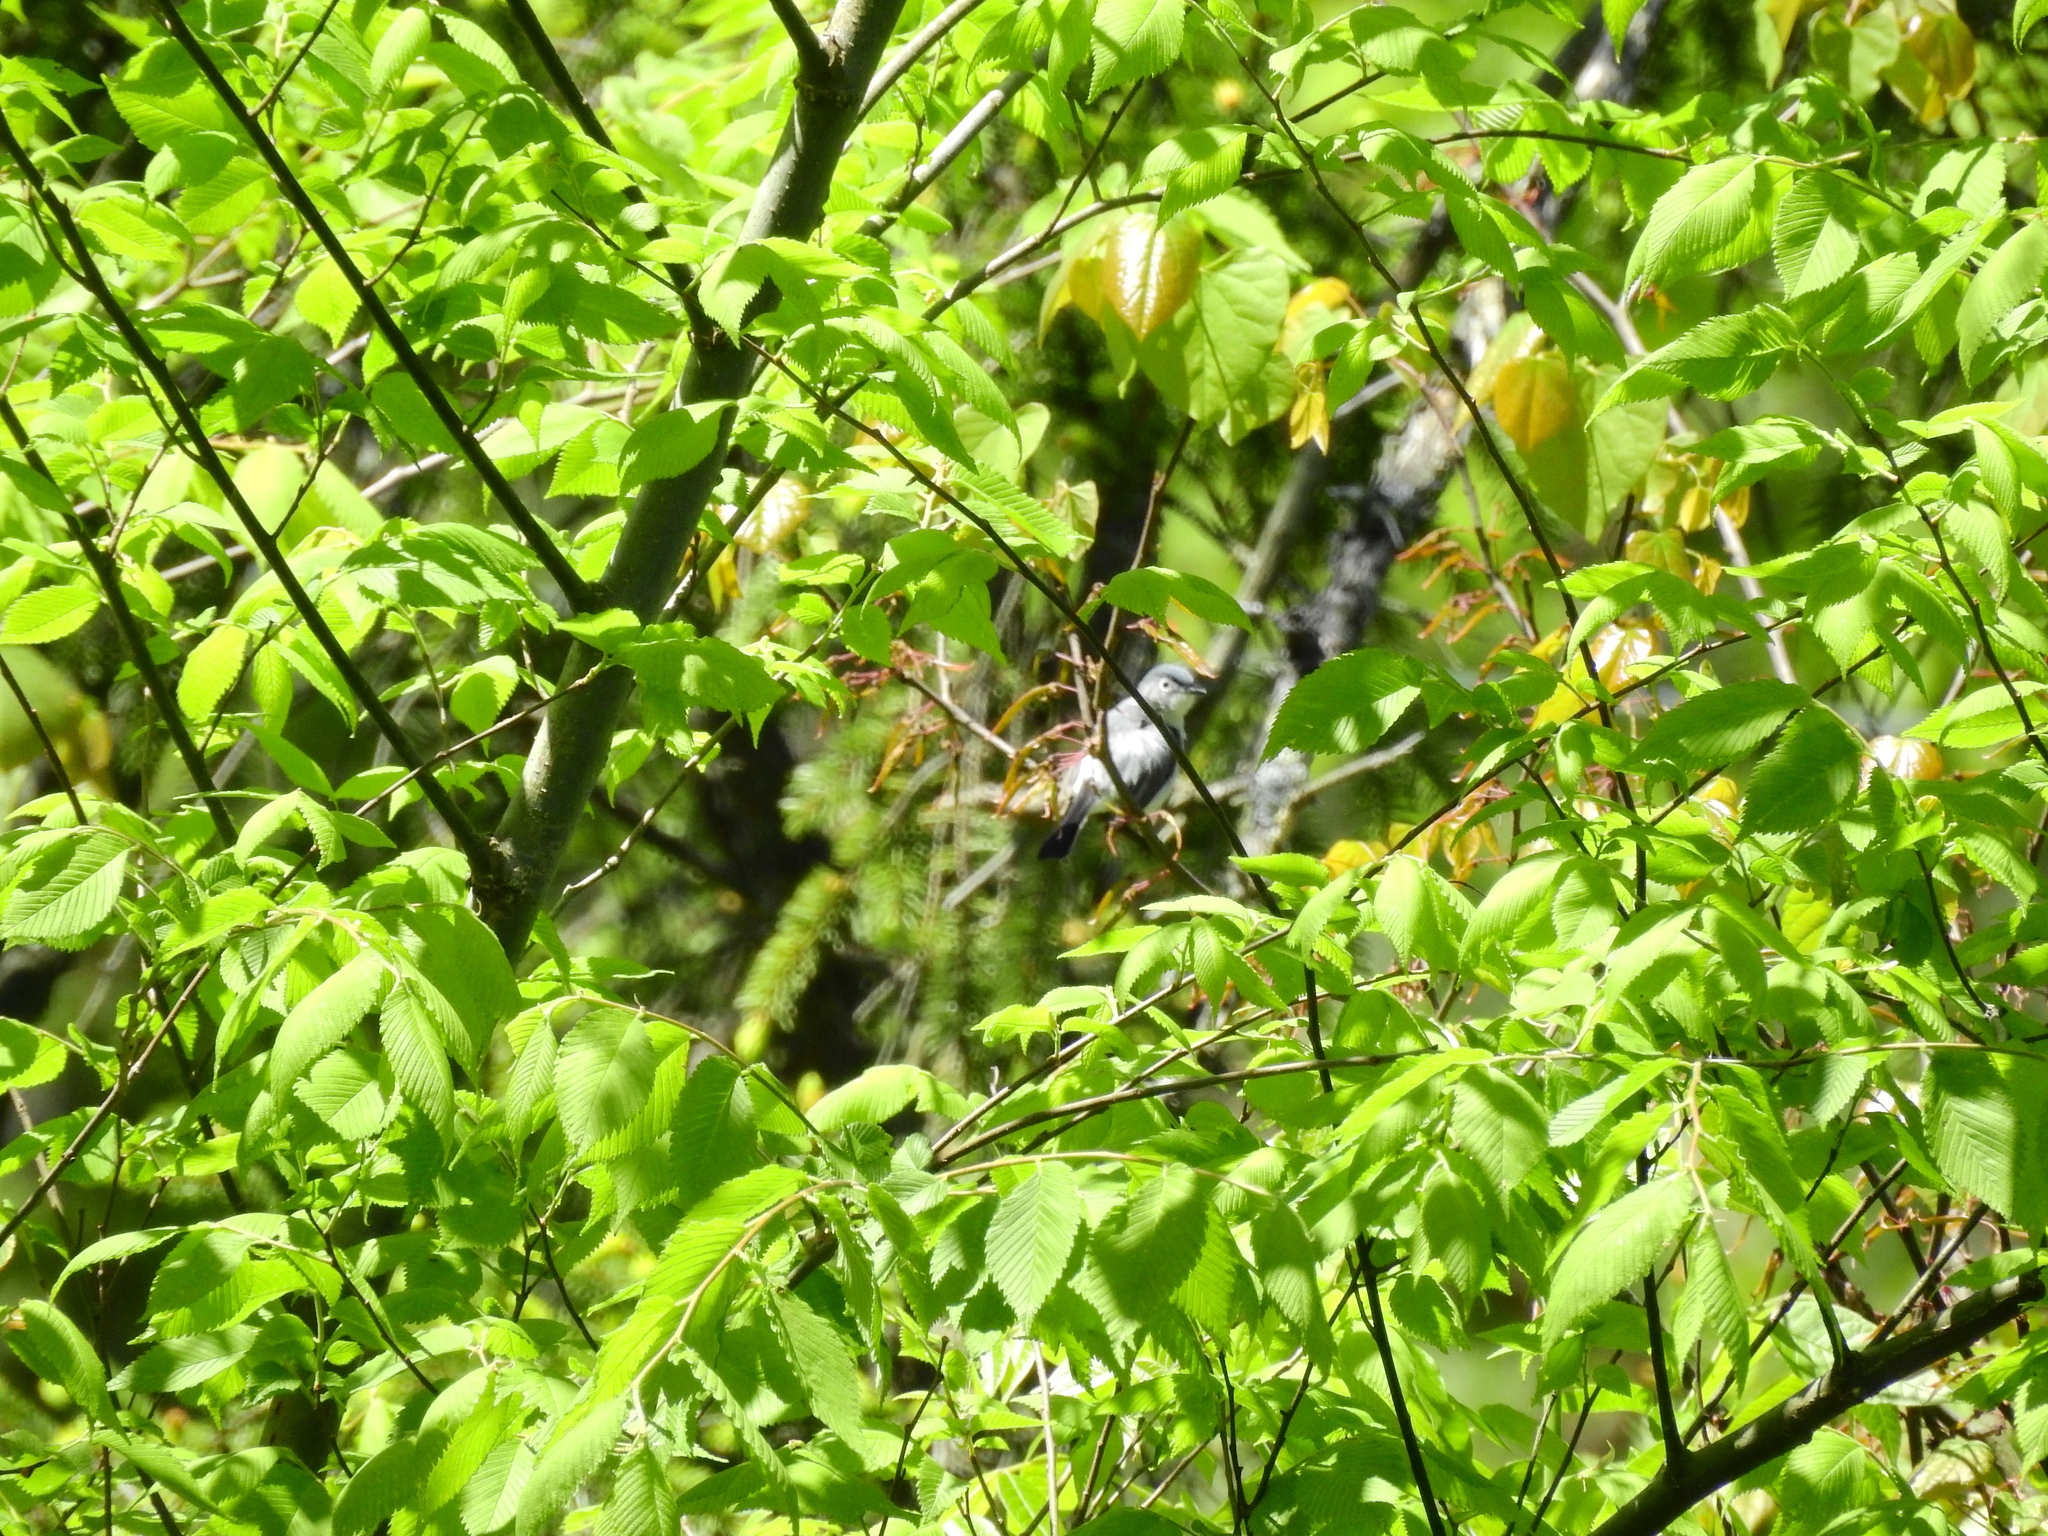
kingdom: Animalia
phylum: Chordata
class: Aves
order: Passeriformes
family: Polioptilidae
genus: Polioptila
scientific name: Polioptila caerulea
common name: Blue-gray gnatcatcher
